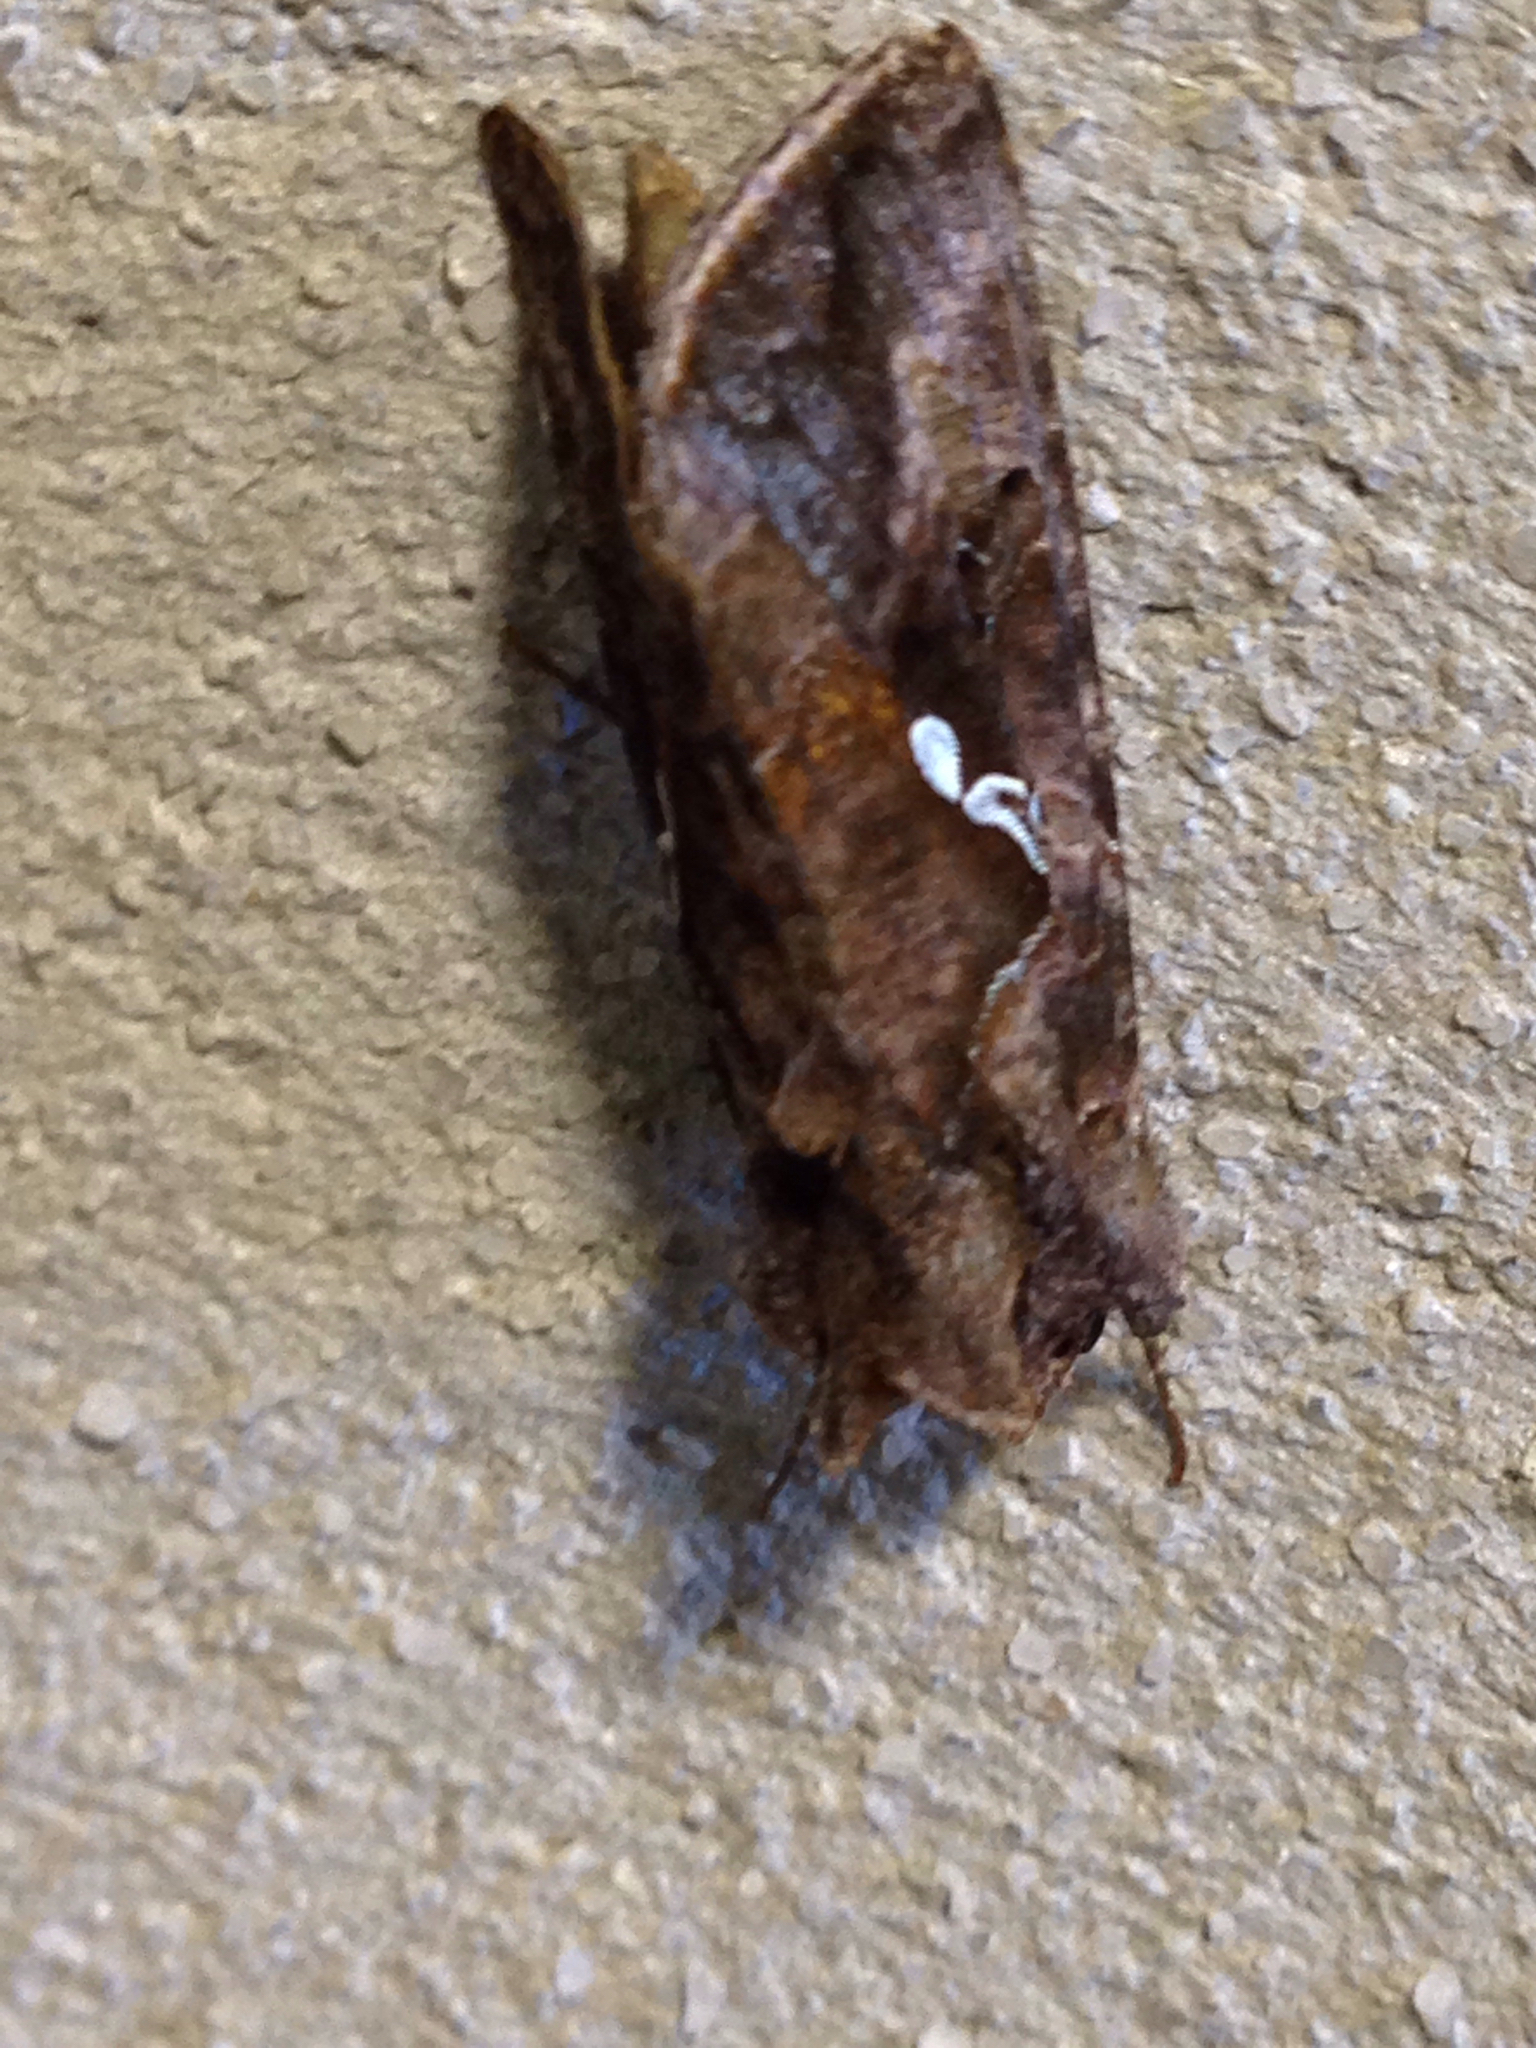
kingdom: Animalia
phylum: Arthropoda
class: Insecta
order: Lepidoptera
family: Noctuidae
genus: Autographa
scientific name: Autographa precationis
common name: Common looper moth
